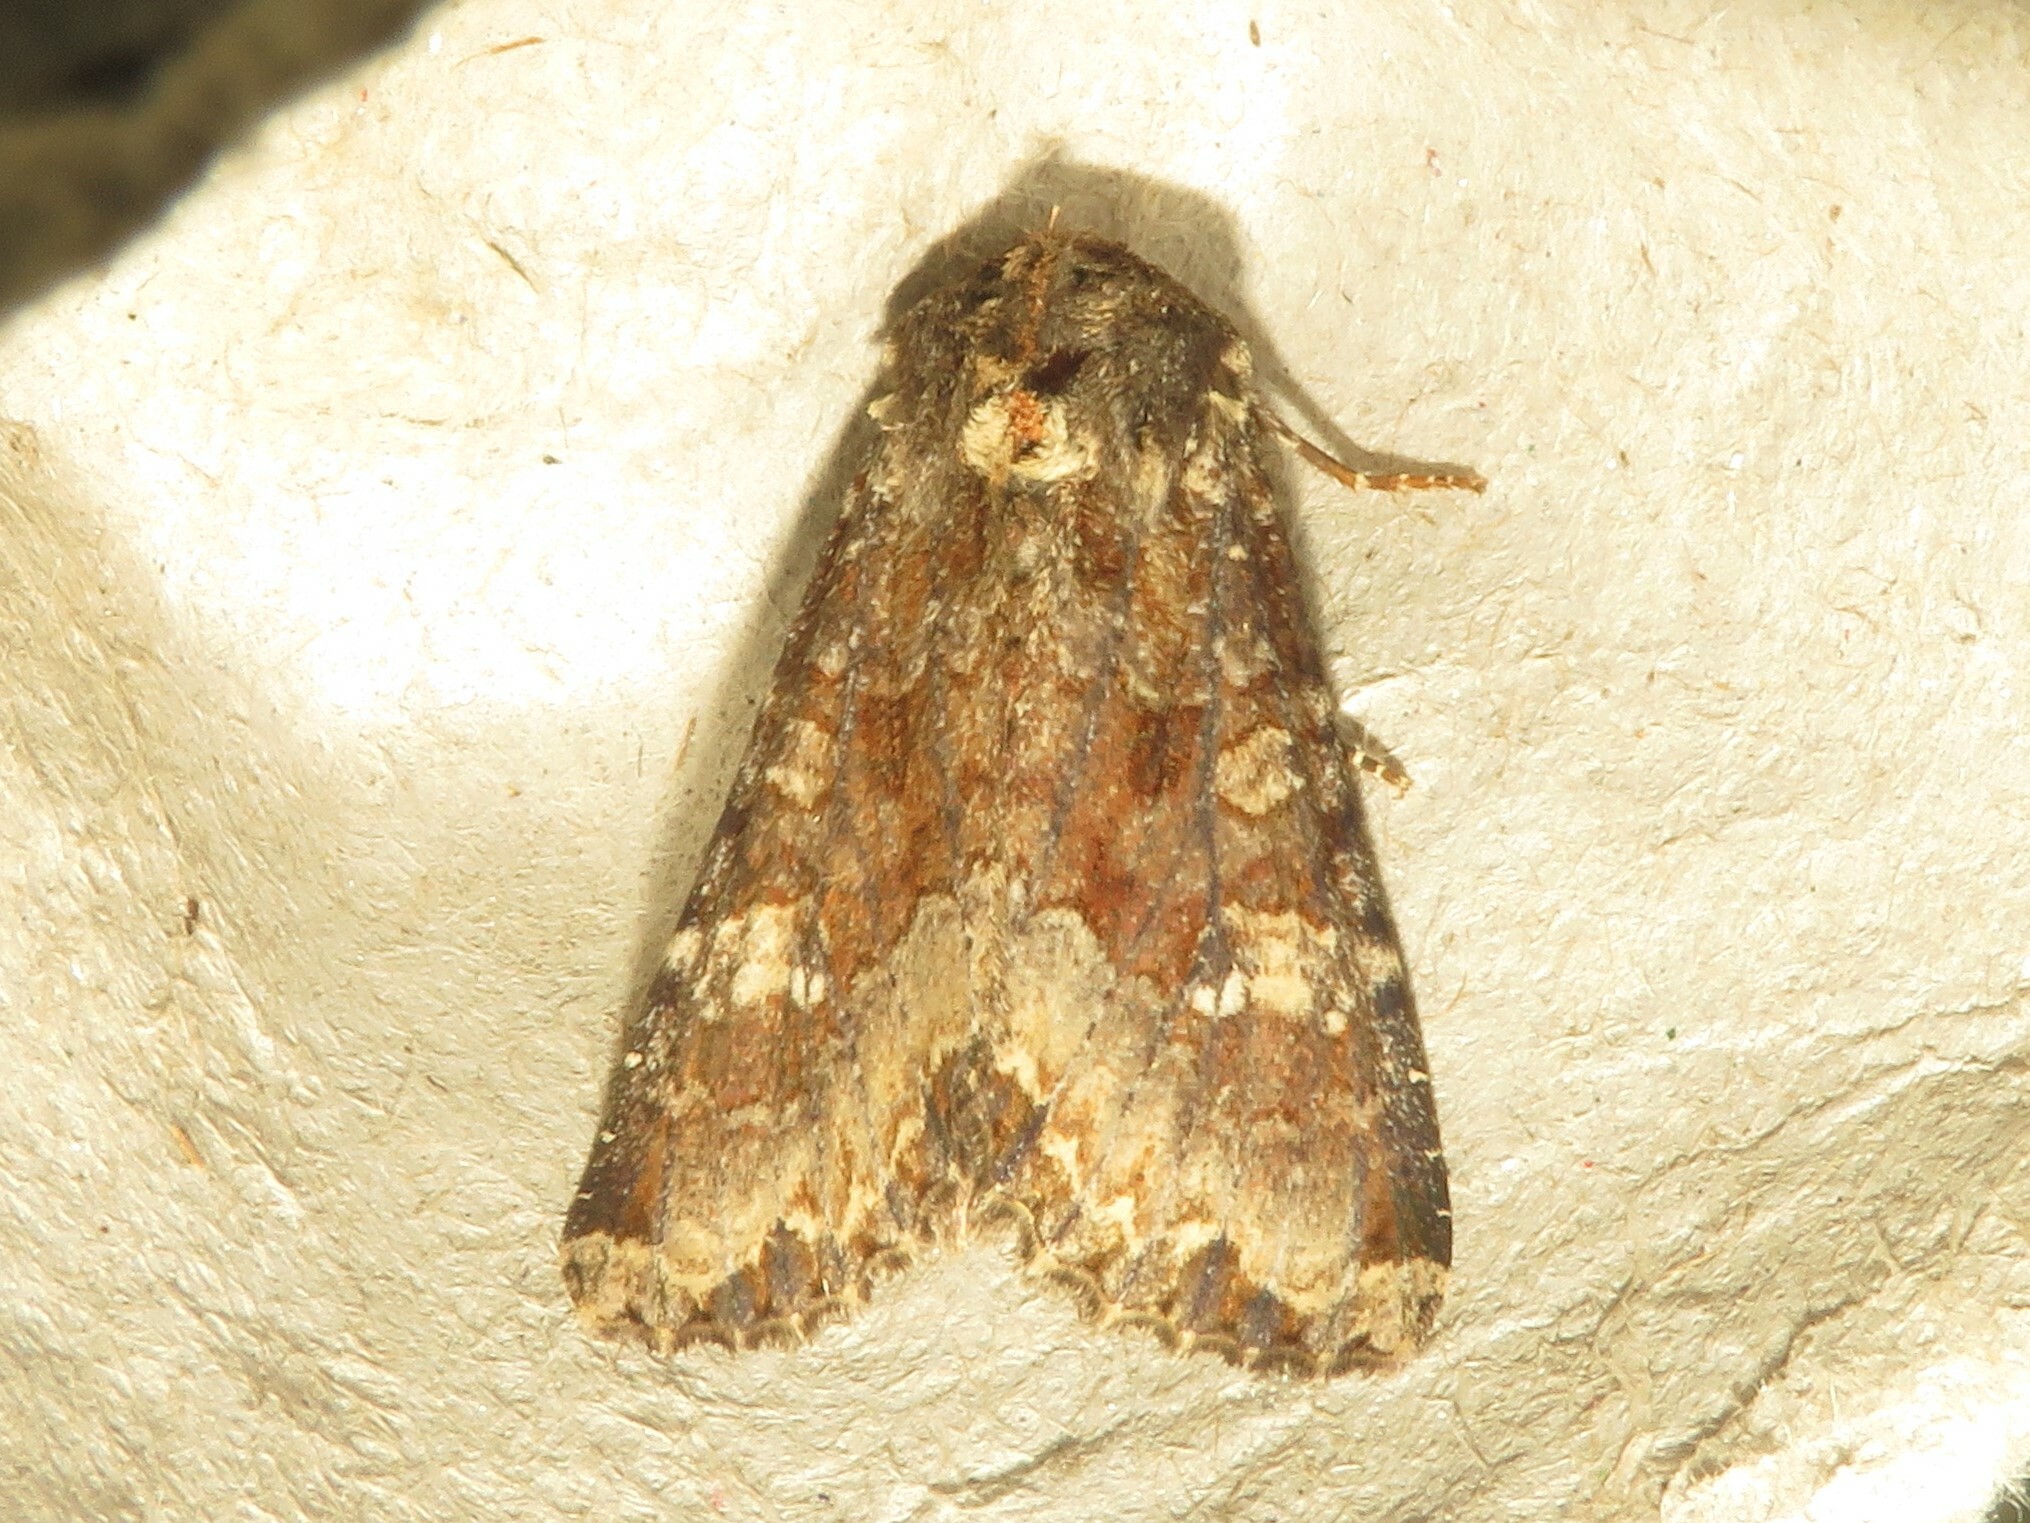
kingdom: Animalia
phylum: Arthropoda
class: Insecta
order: Lepidoptera
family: Noctuidae
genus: Apamea
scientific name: Apamea amputatrix
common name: Yellow-headed cutworm moth
